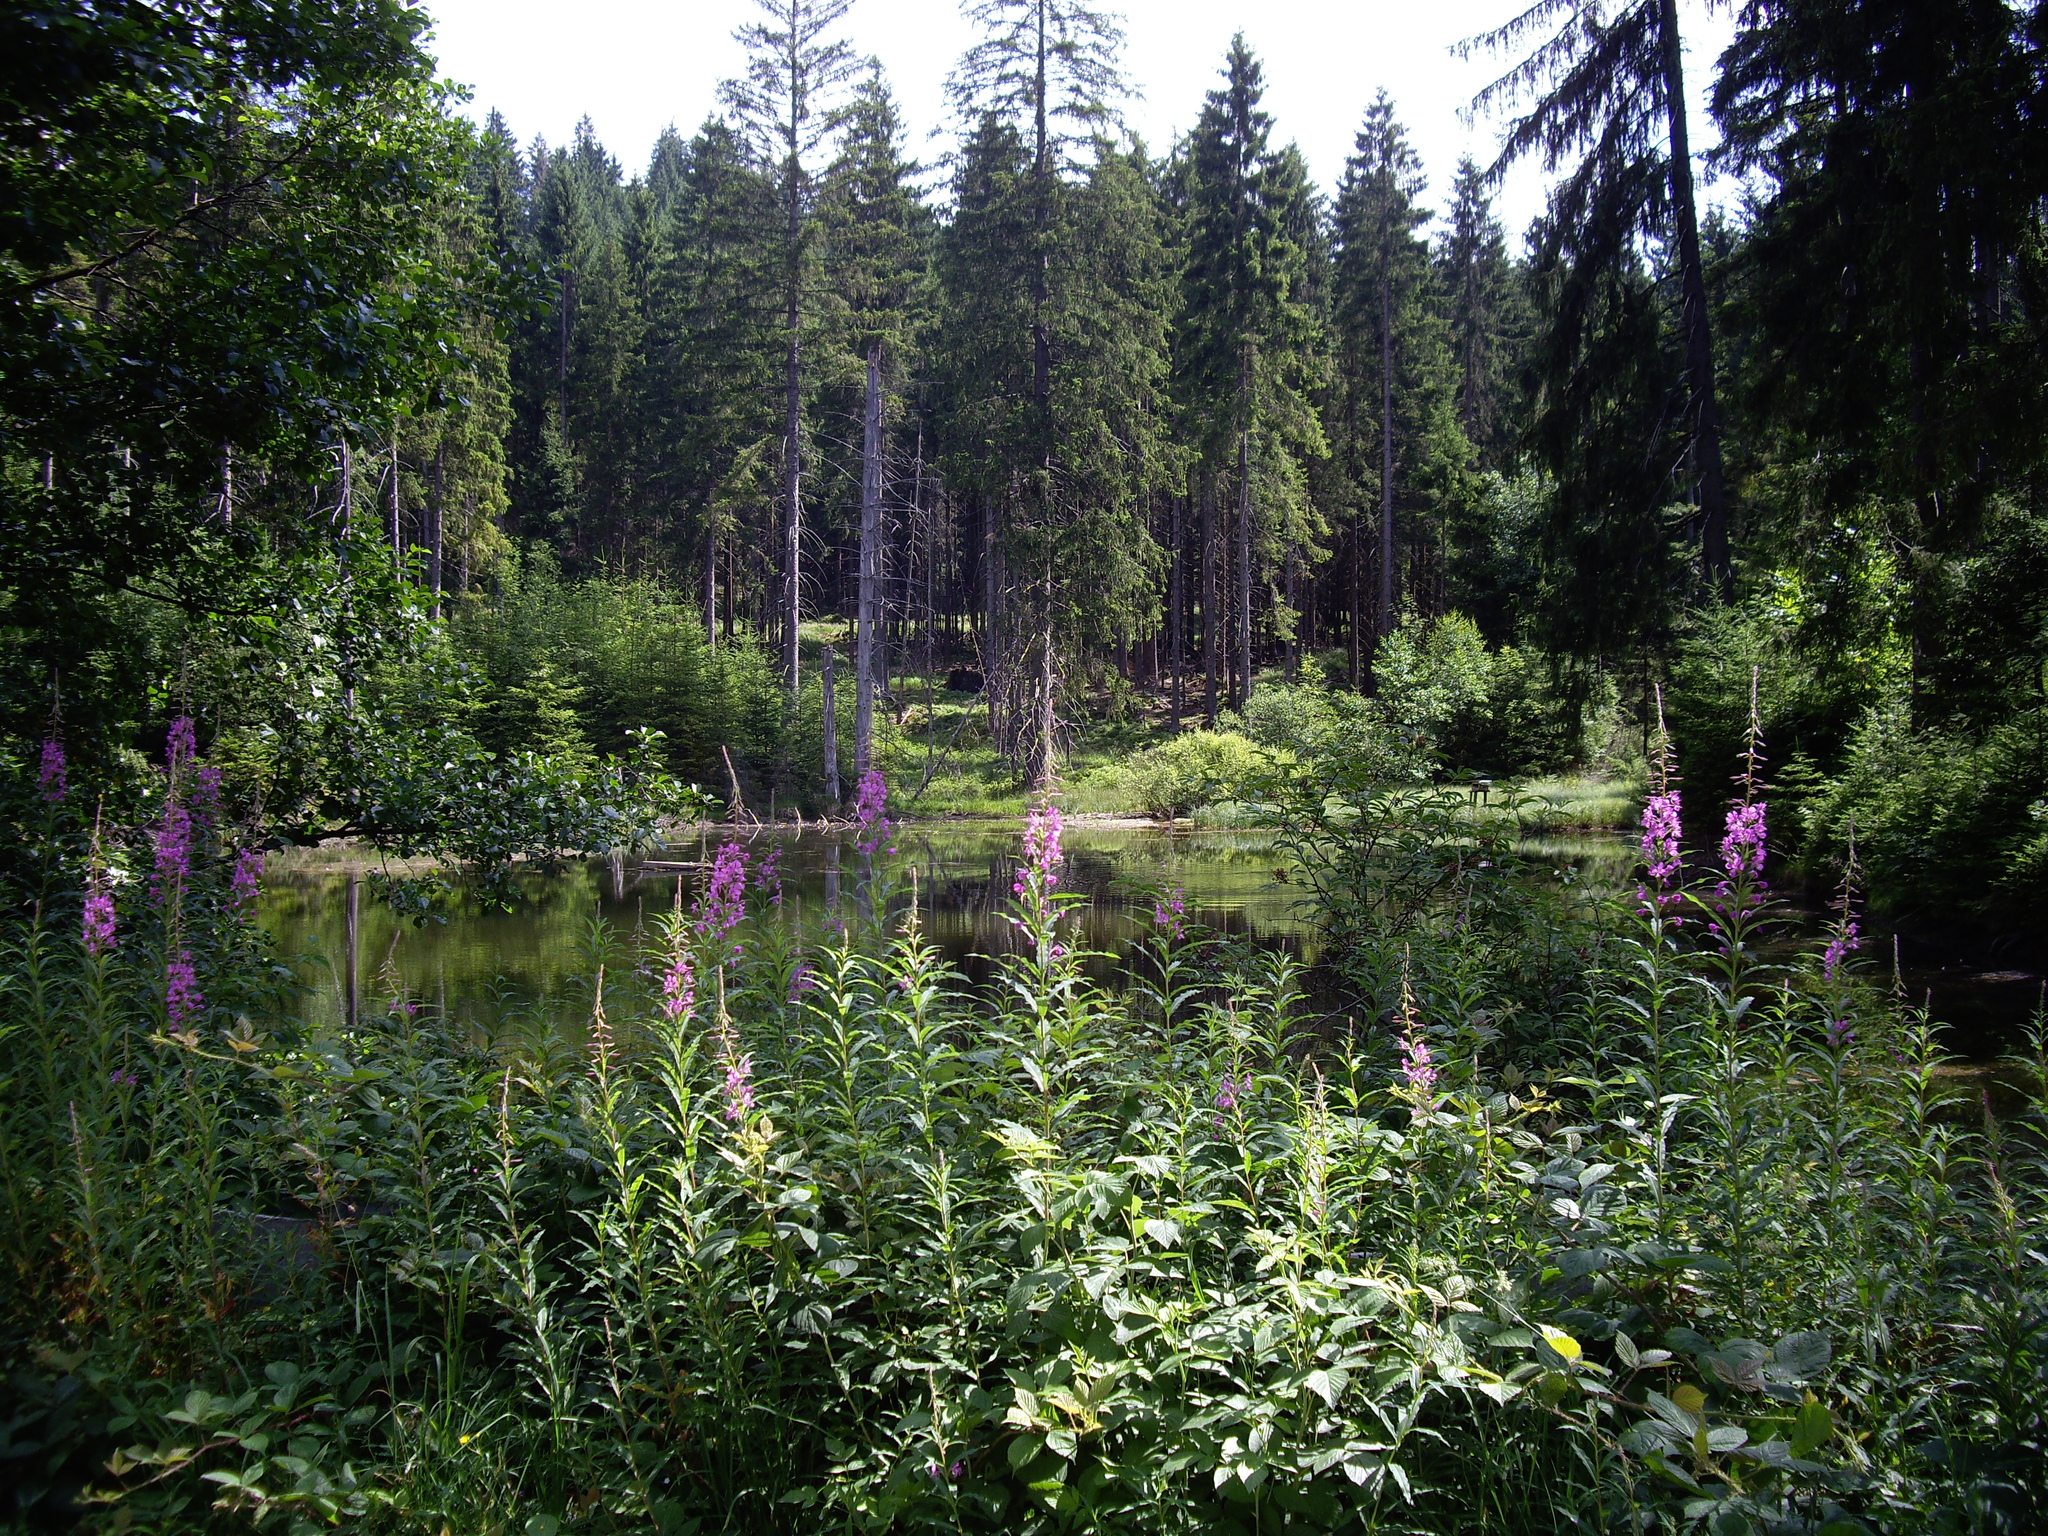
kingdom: Plantae
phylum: Tracheophyta
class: Magnoliopsida
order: Myrtales
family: Onagraceae
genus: Chamaenerion
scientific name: Chamaenerion angustifolium
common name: Fireweed
